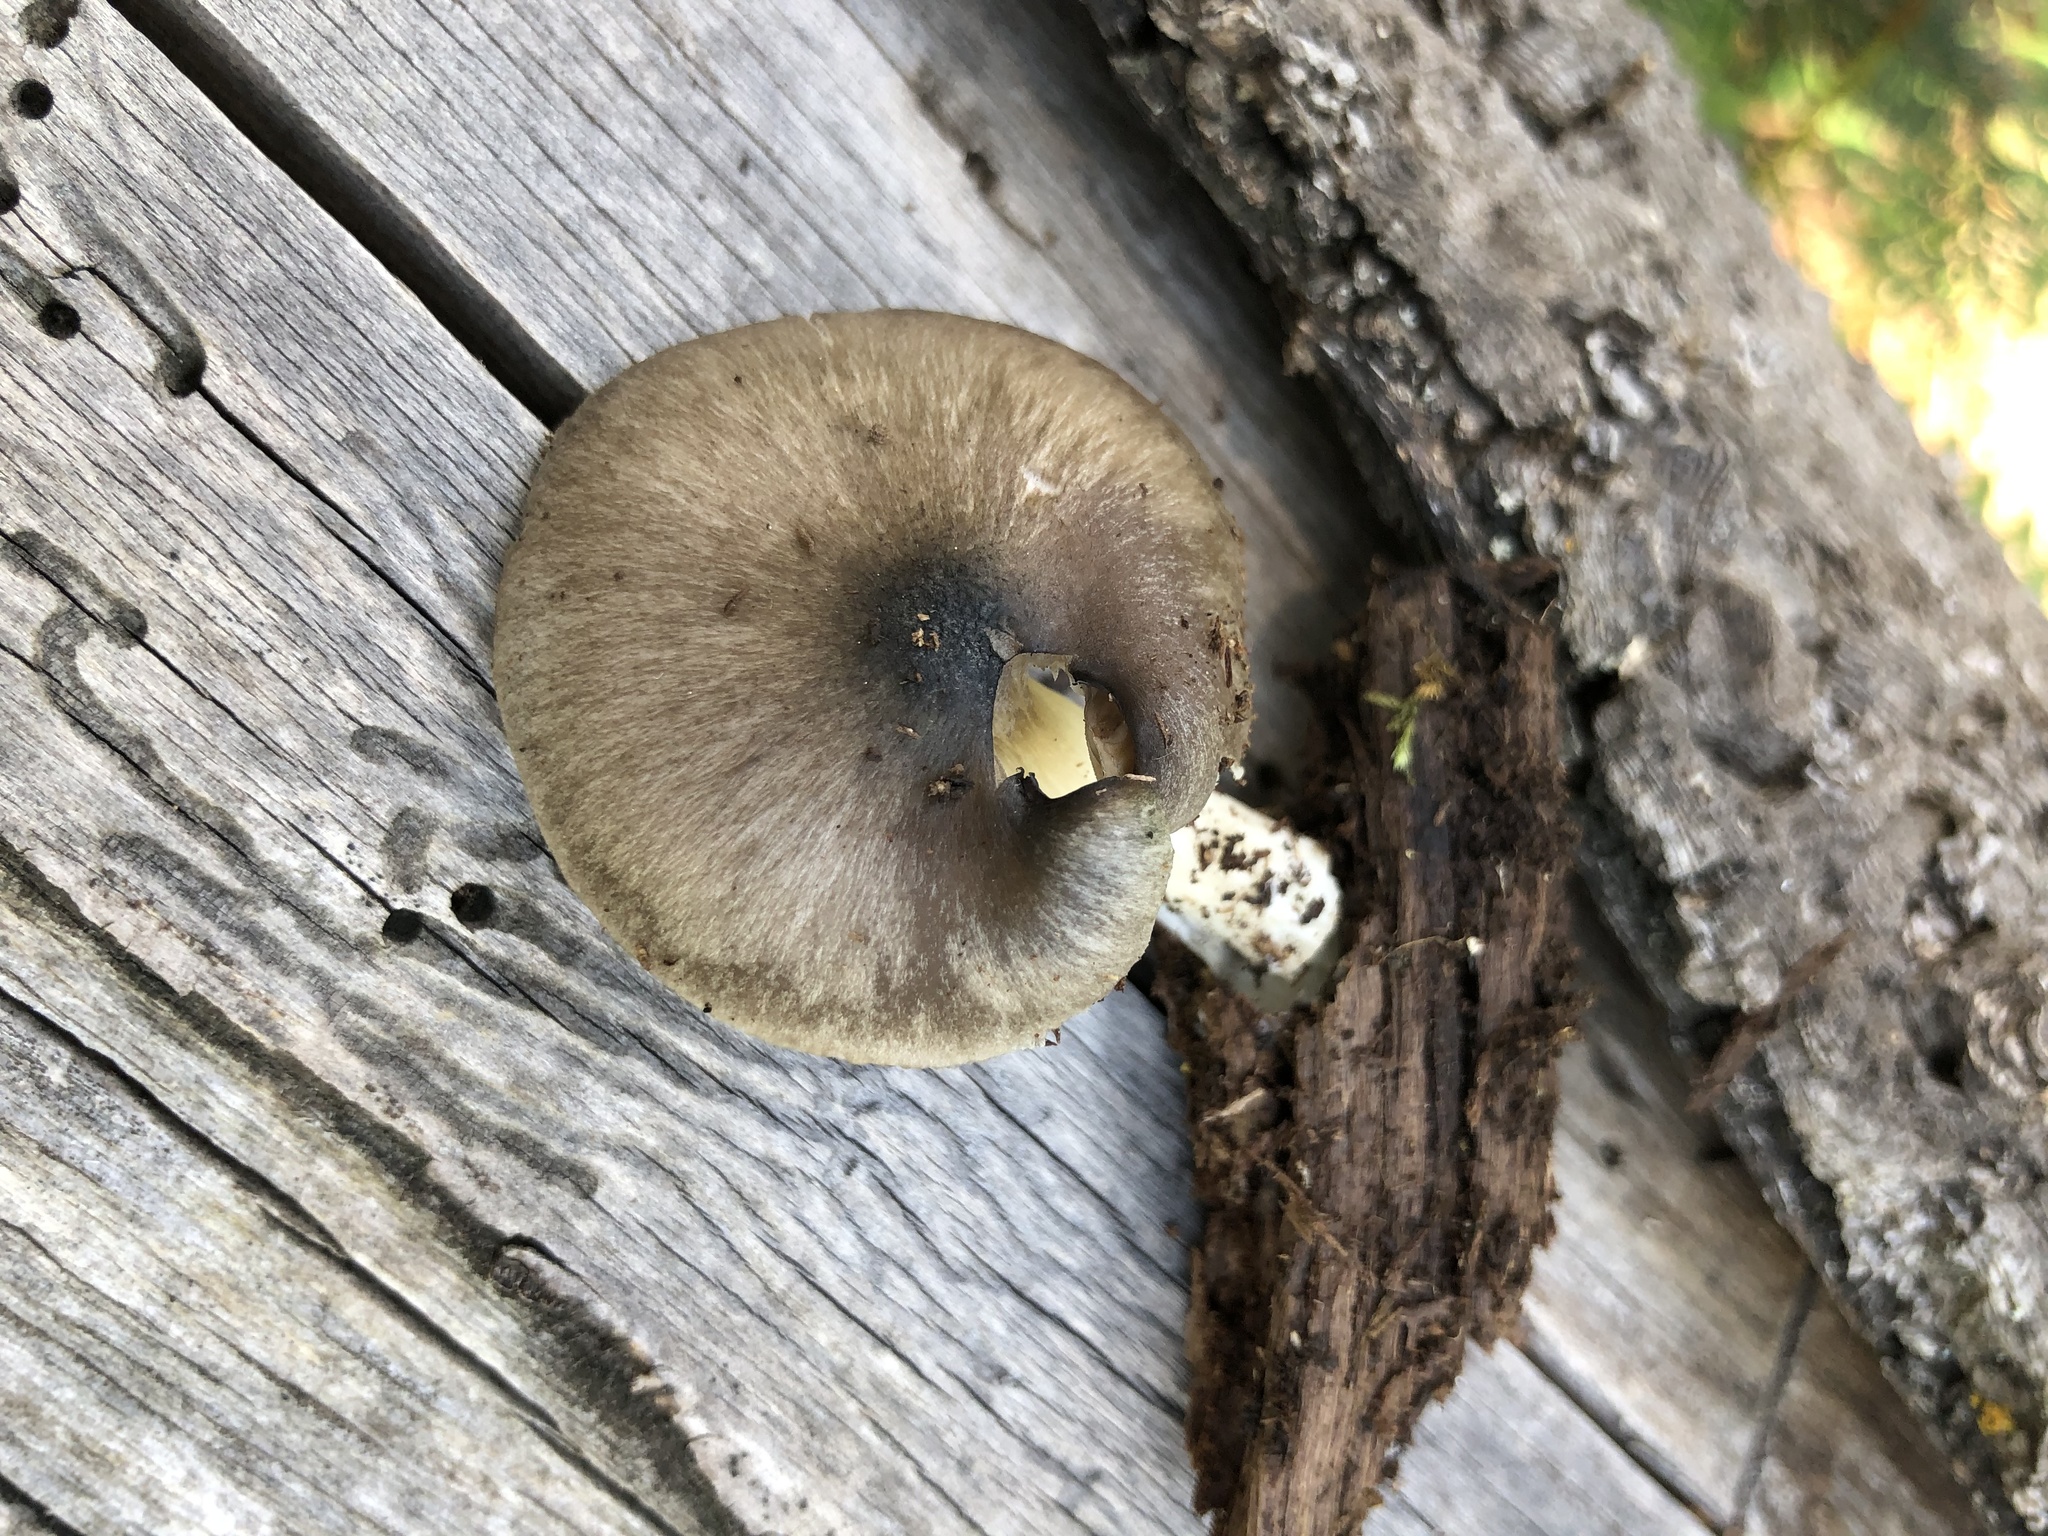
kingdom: Fungi
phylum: Basidiomycota
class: Agaricomycetes
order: Agaricales
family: Pluteaceae
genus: Pluteus
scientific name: Pluteus americanus
